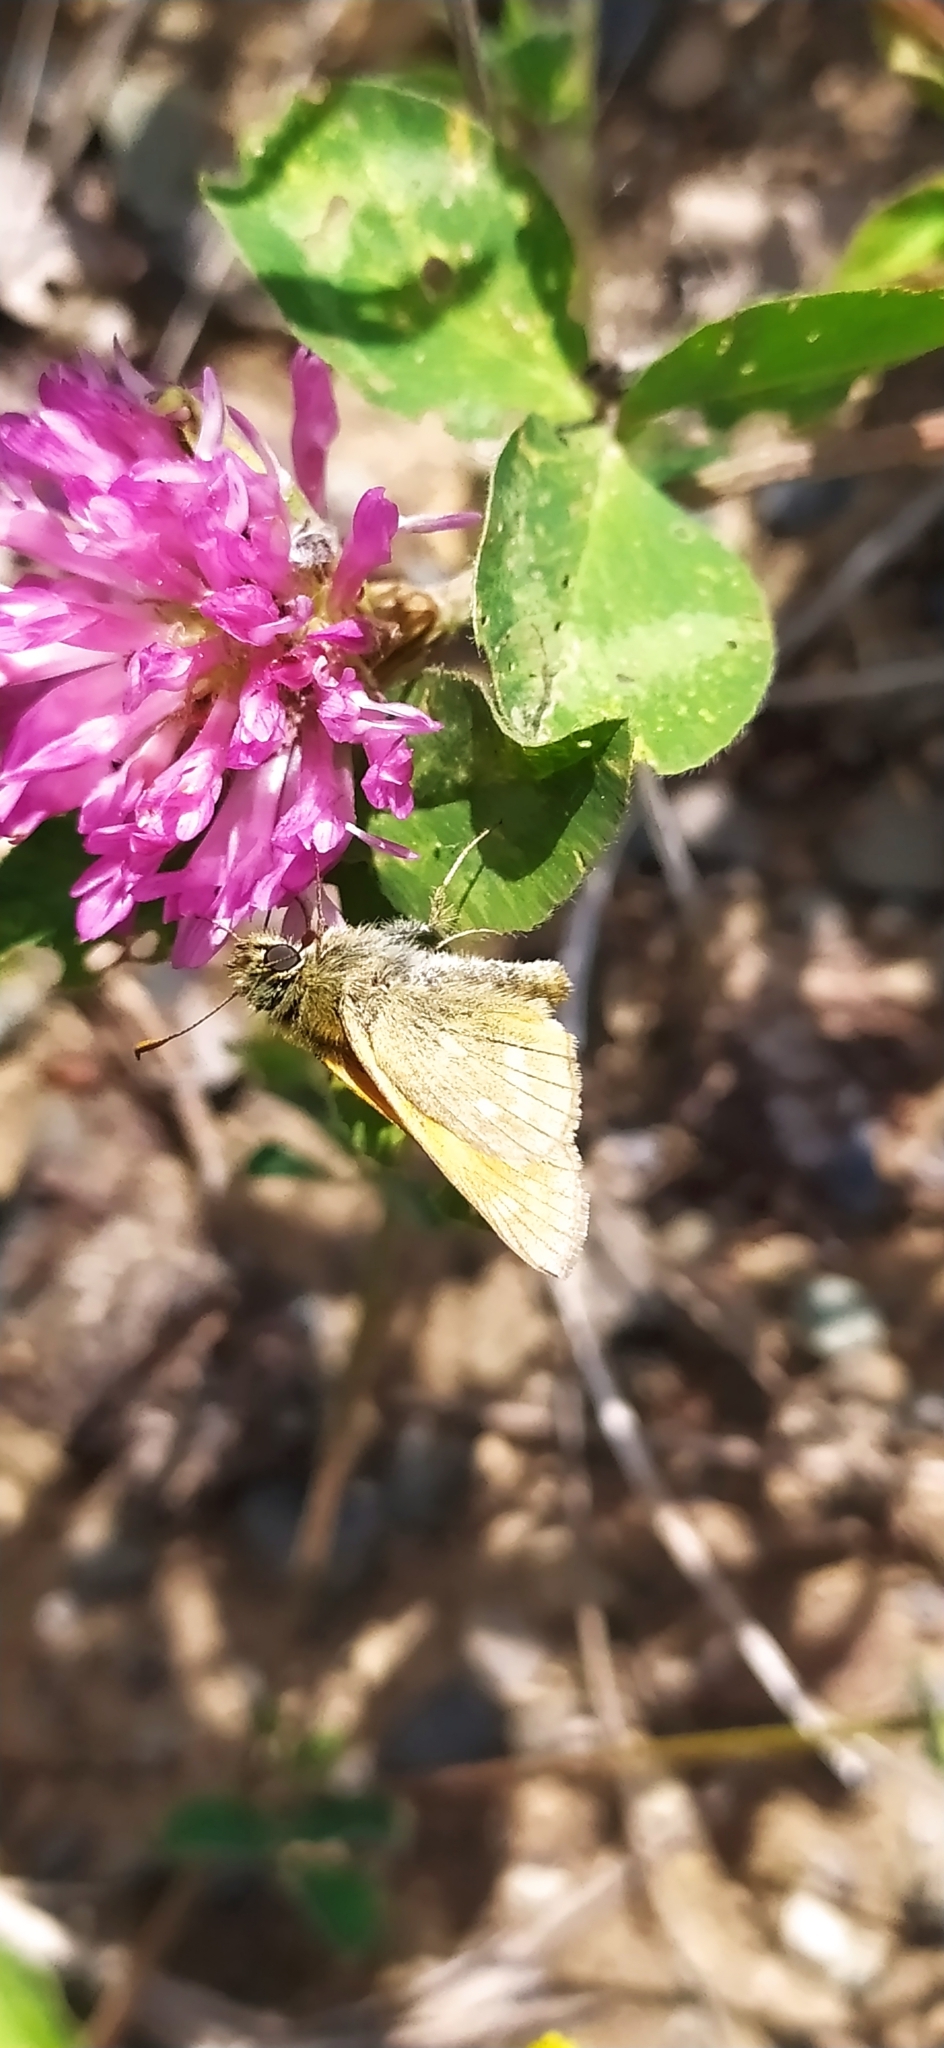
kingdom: Animalia
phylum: Arthropoda
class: Insecta
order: Lepidoptera
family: Hesperiidae
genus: Ochlodes
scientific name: Ochlodes venata
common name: Large skipper
